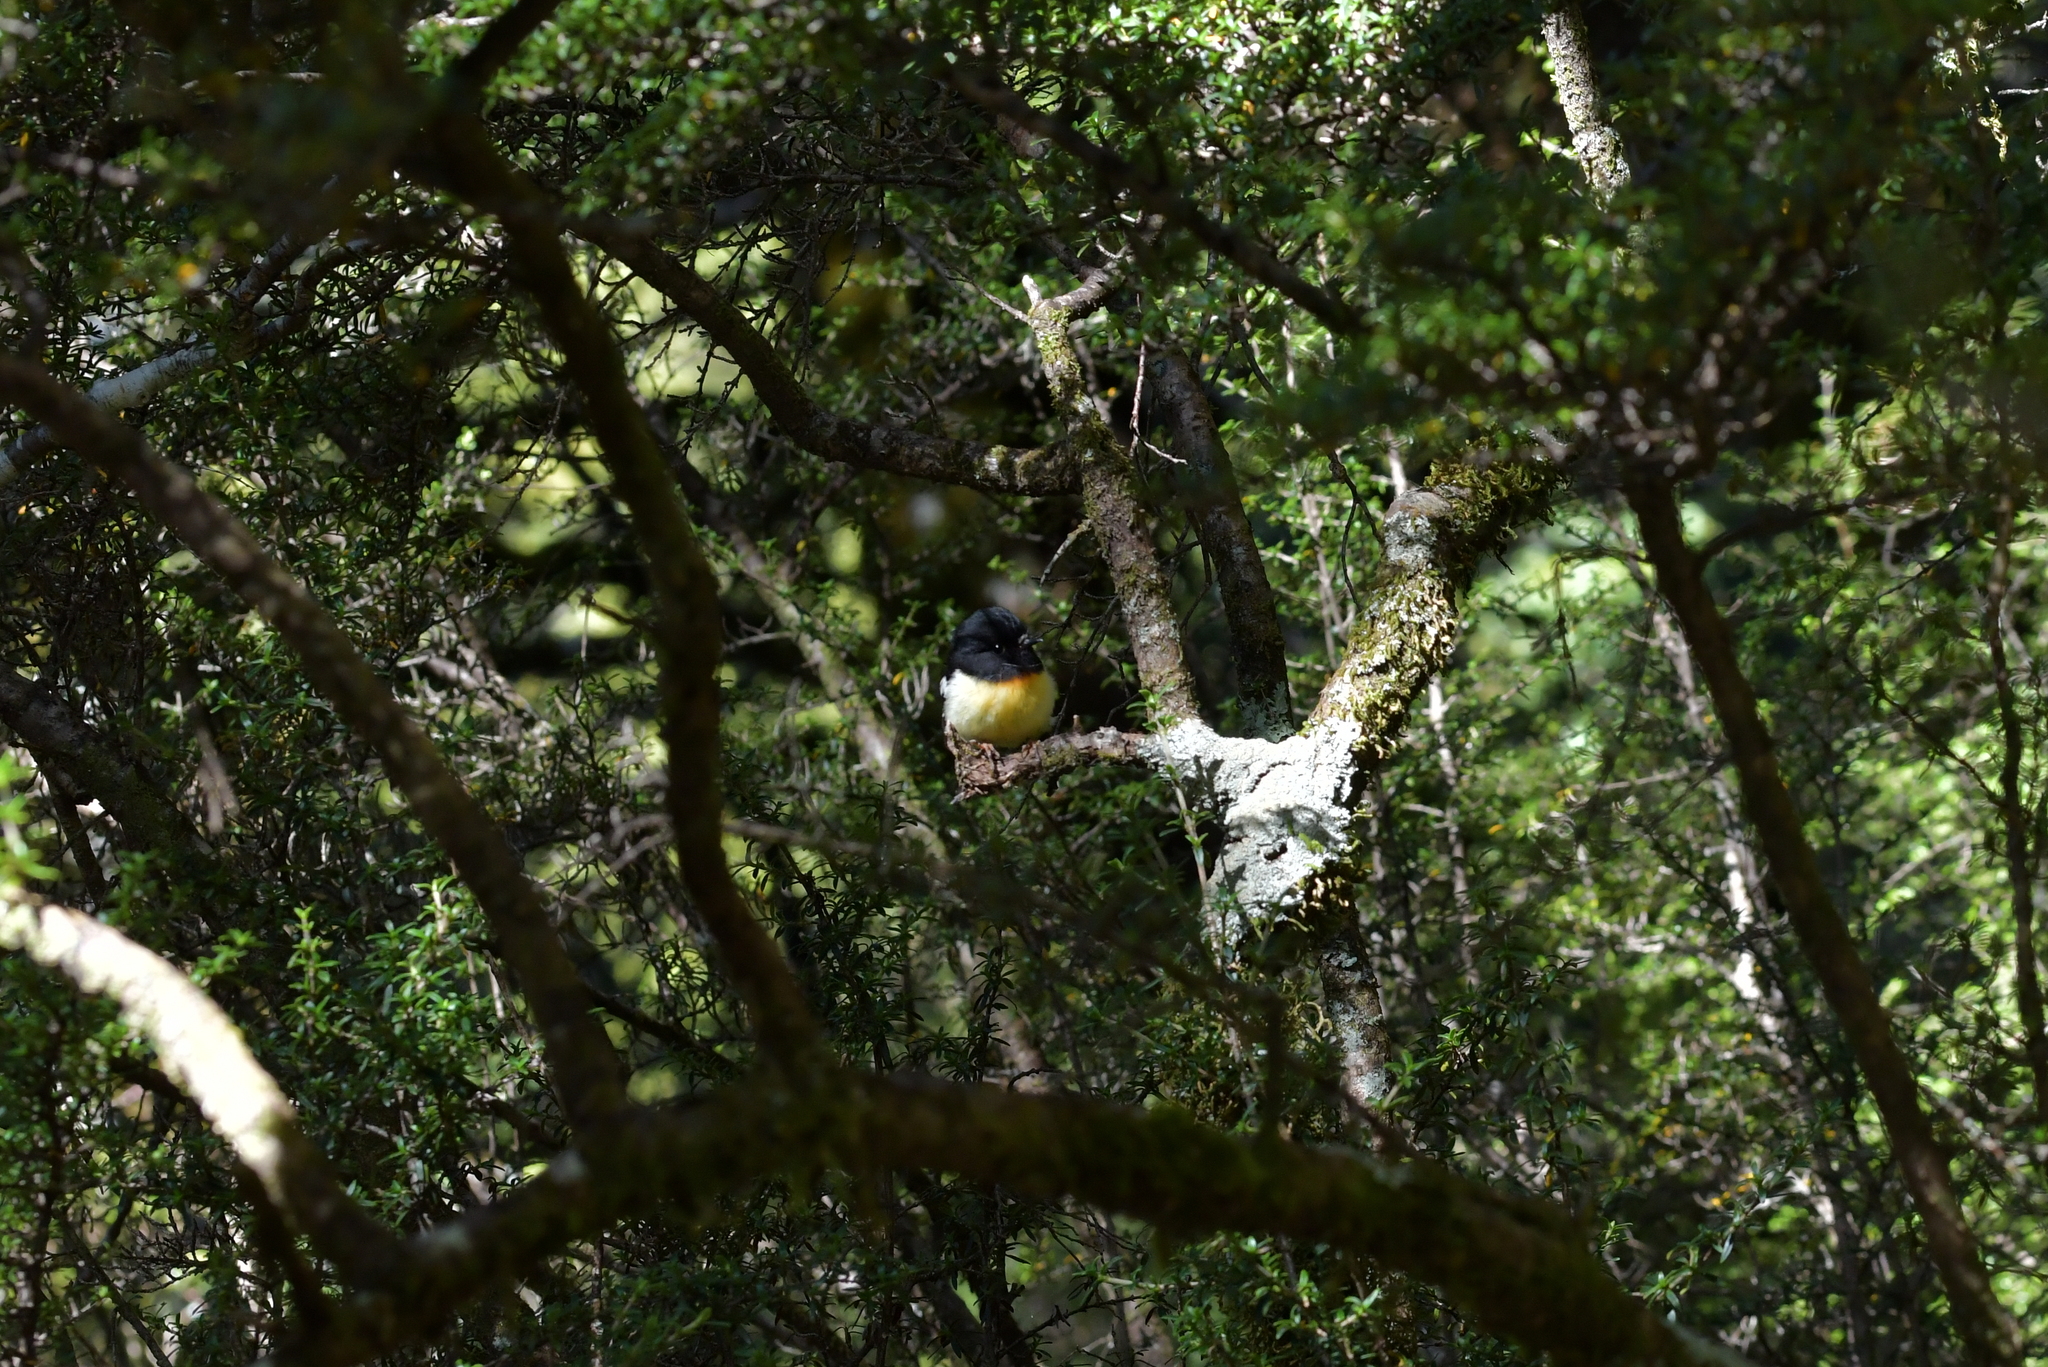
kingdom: Animalia
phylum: Chordata
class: Aves
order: Passeriformes
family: Petroicidae
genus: Petroica
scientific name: Petroica macrocephala
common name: Tomtit
